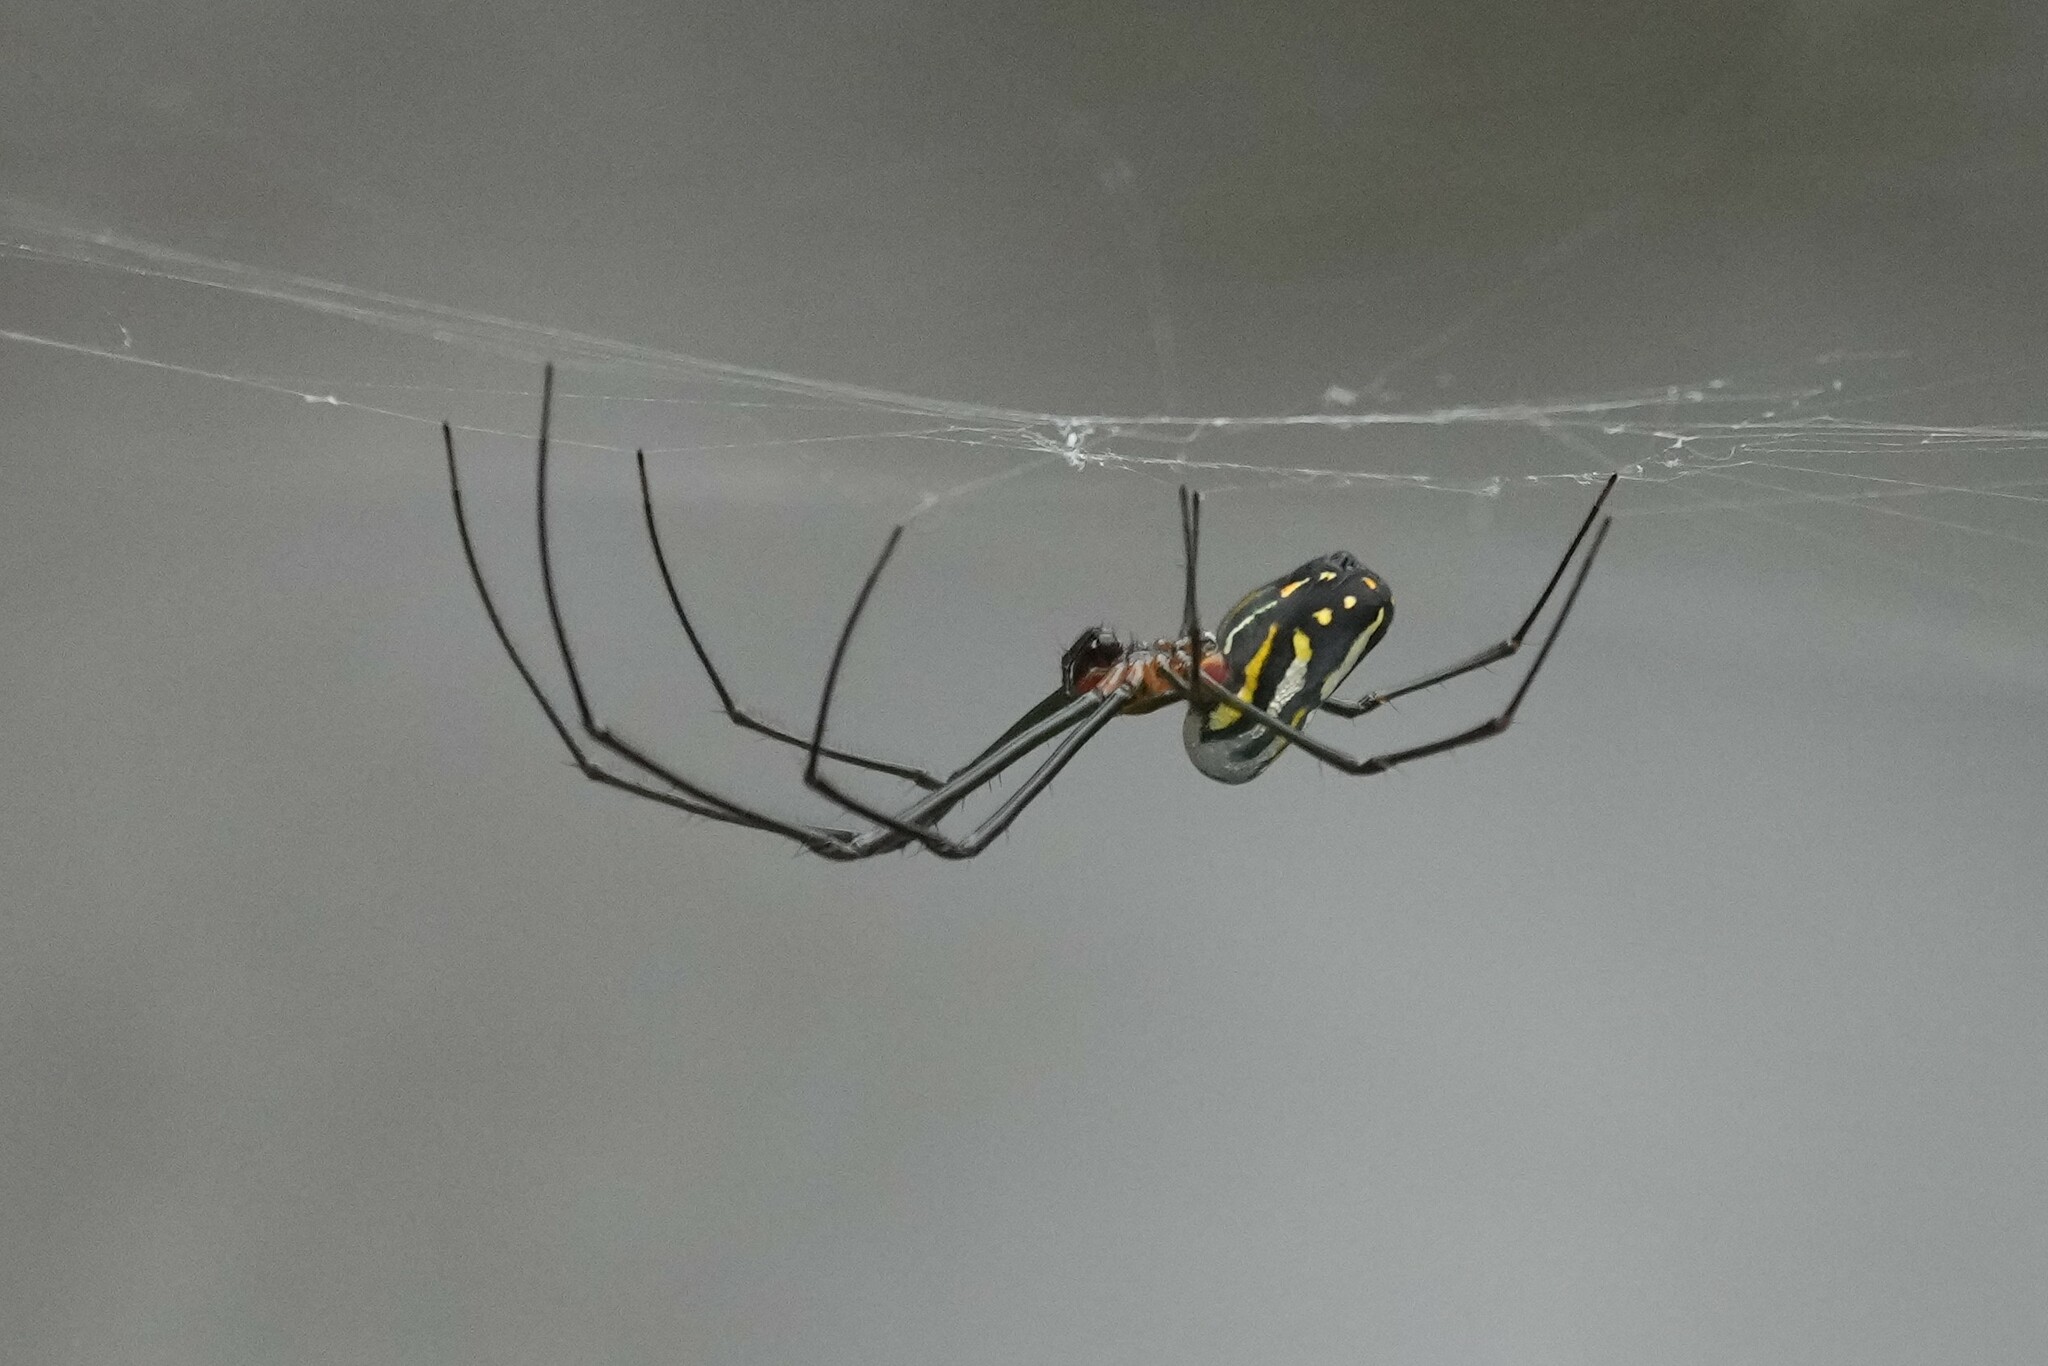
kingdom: Animalia
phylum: Arthropoda
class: Arachnida
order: Araneae
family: Tetragnathidae
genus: Leucauge
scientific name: Leucauge argyra
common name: Longjawed orb weavers
